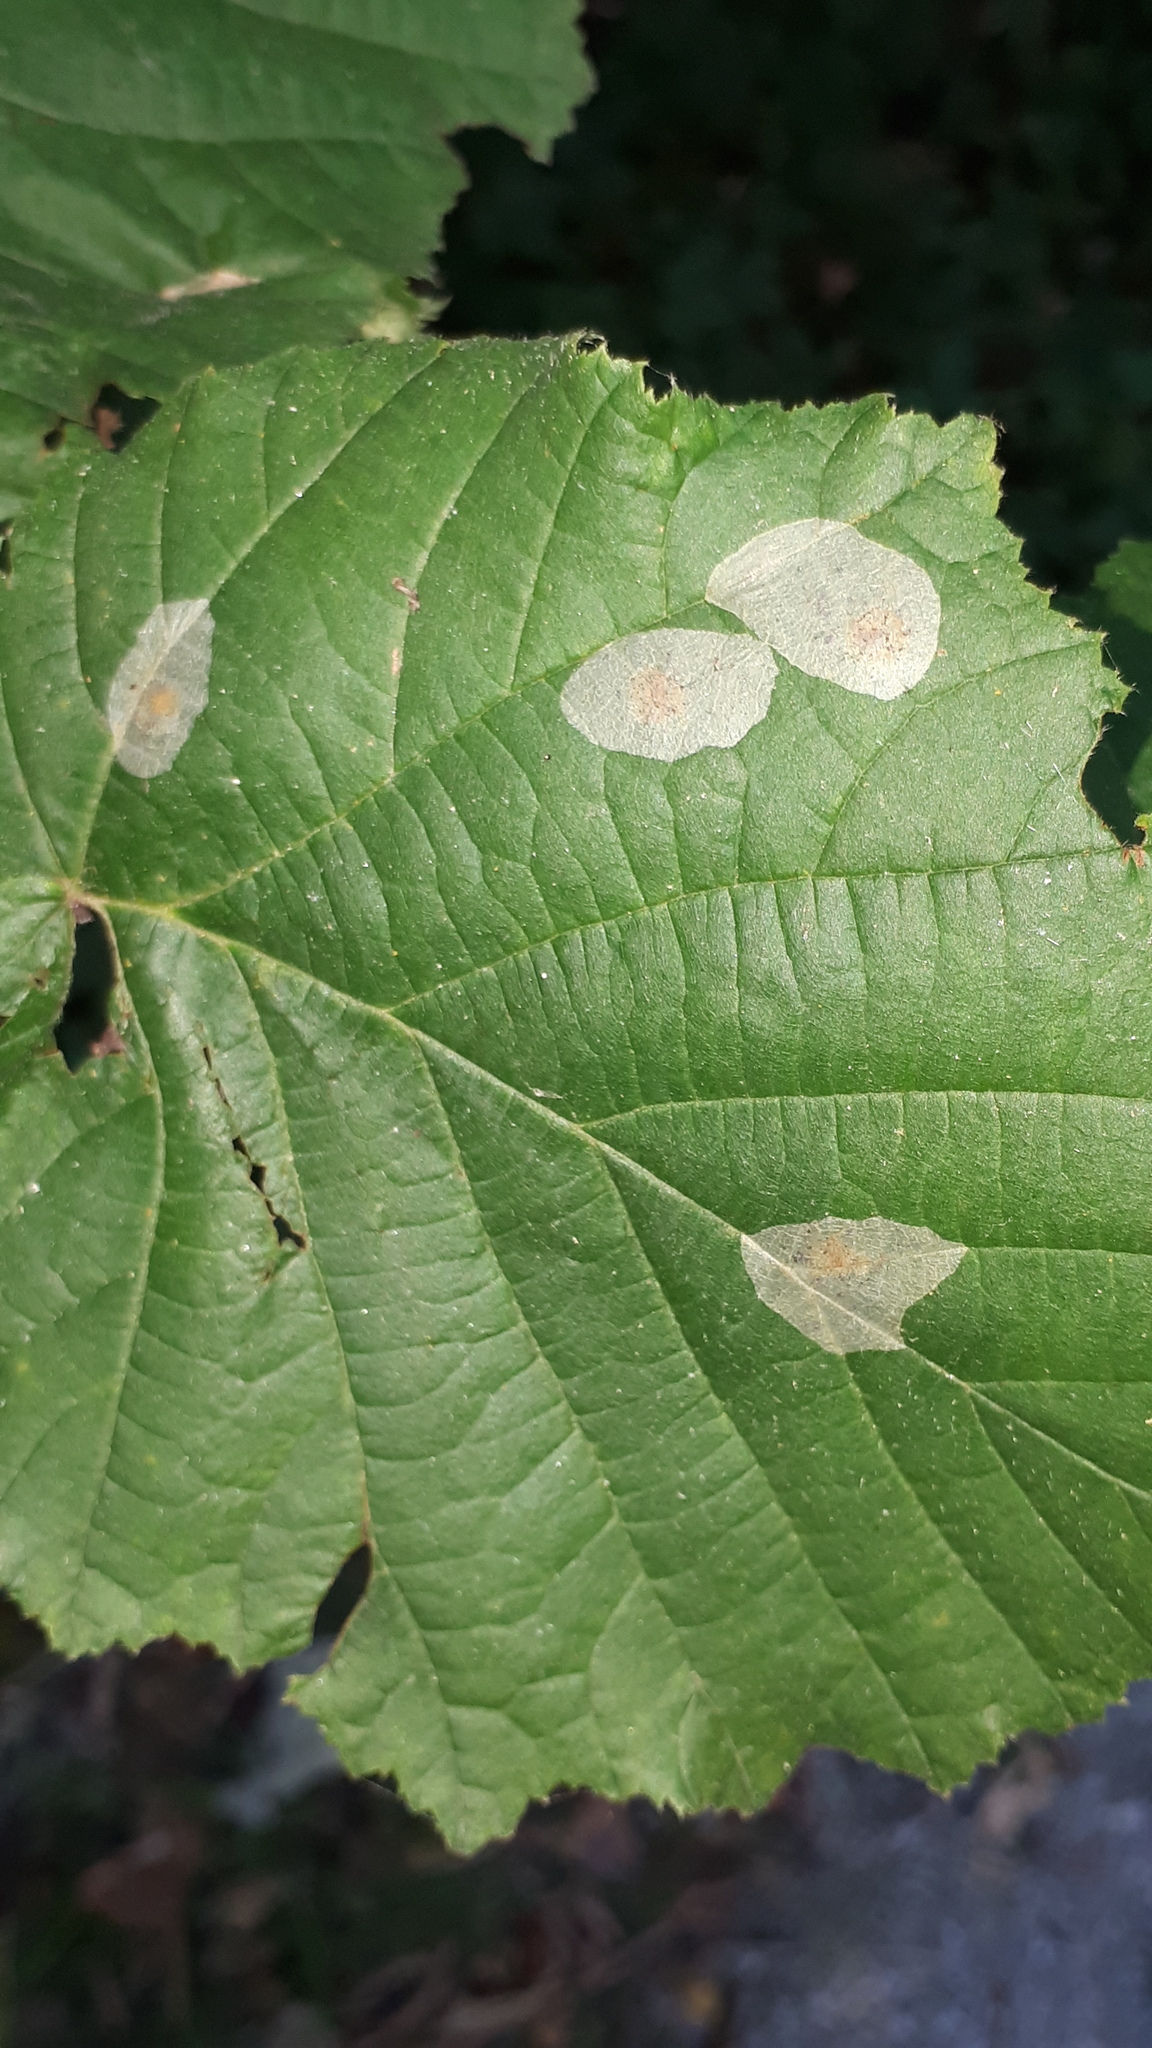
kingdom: Animalia
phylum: Arthropoda
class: Insecta
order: Lepidoptera
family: Gracillariidae
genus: Phyllonorycter
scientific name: Phyllonorycter coryli
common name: Nut-leaf blister moth
